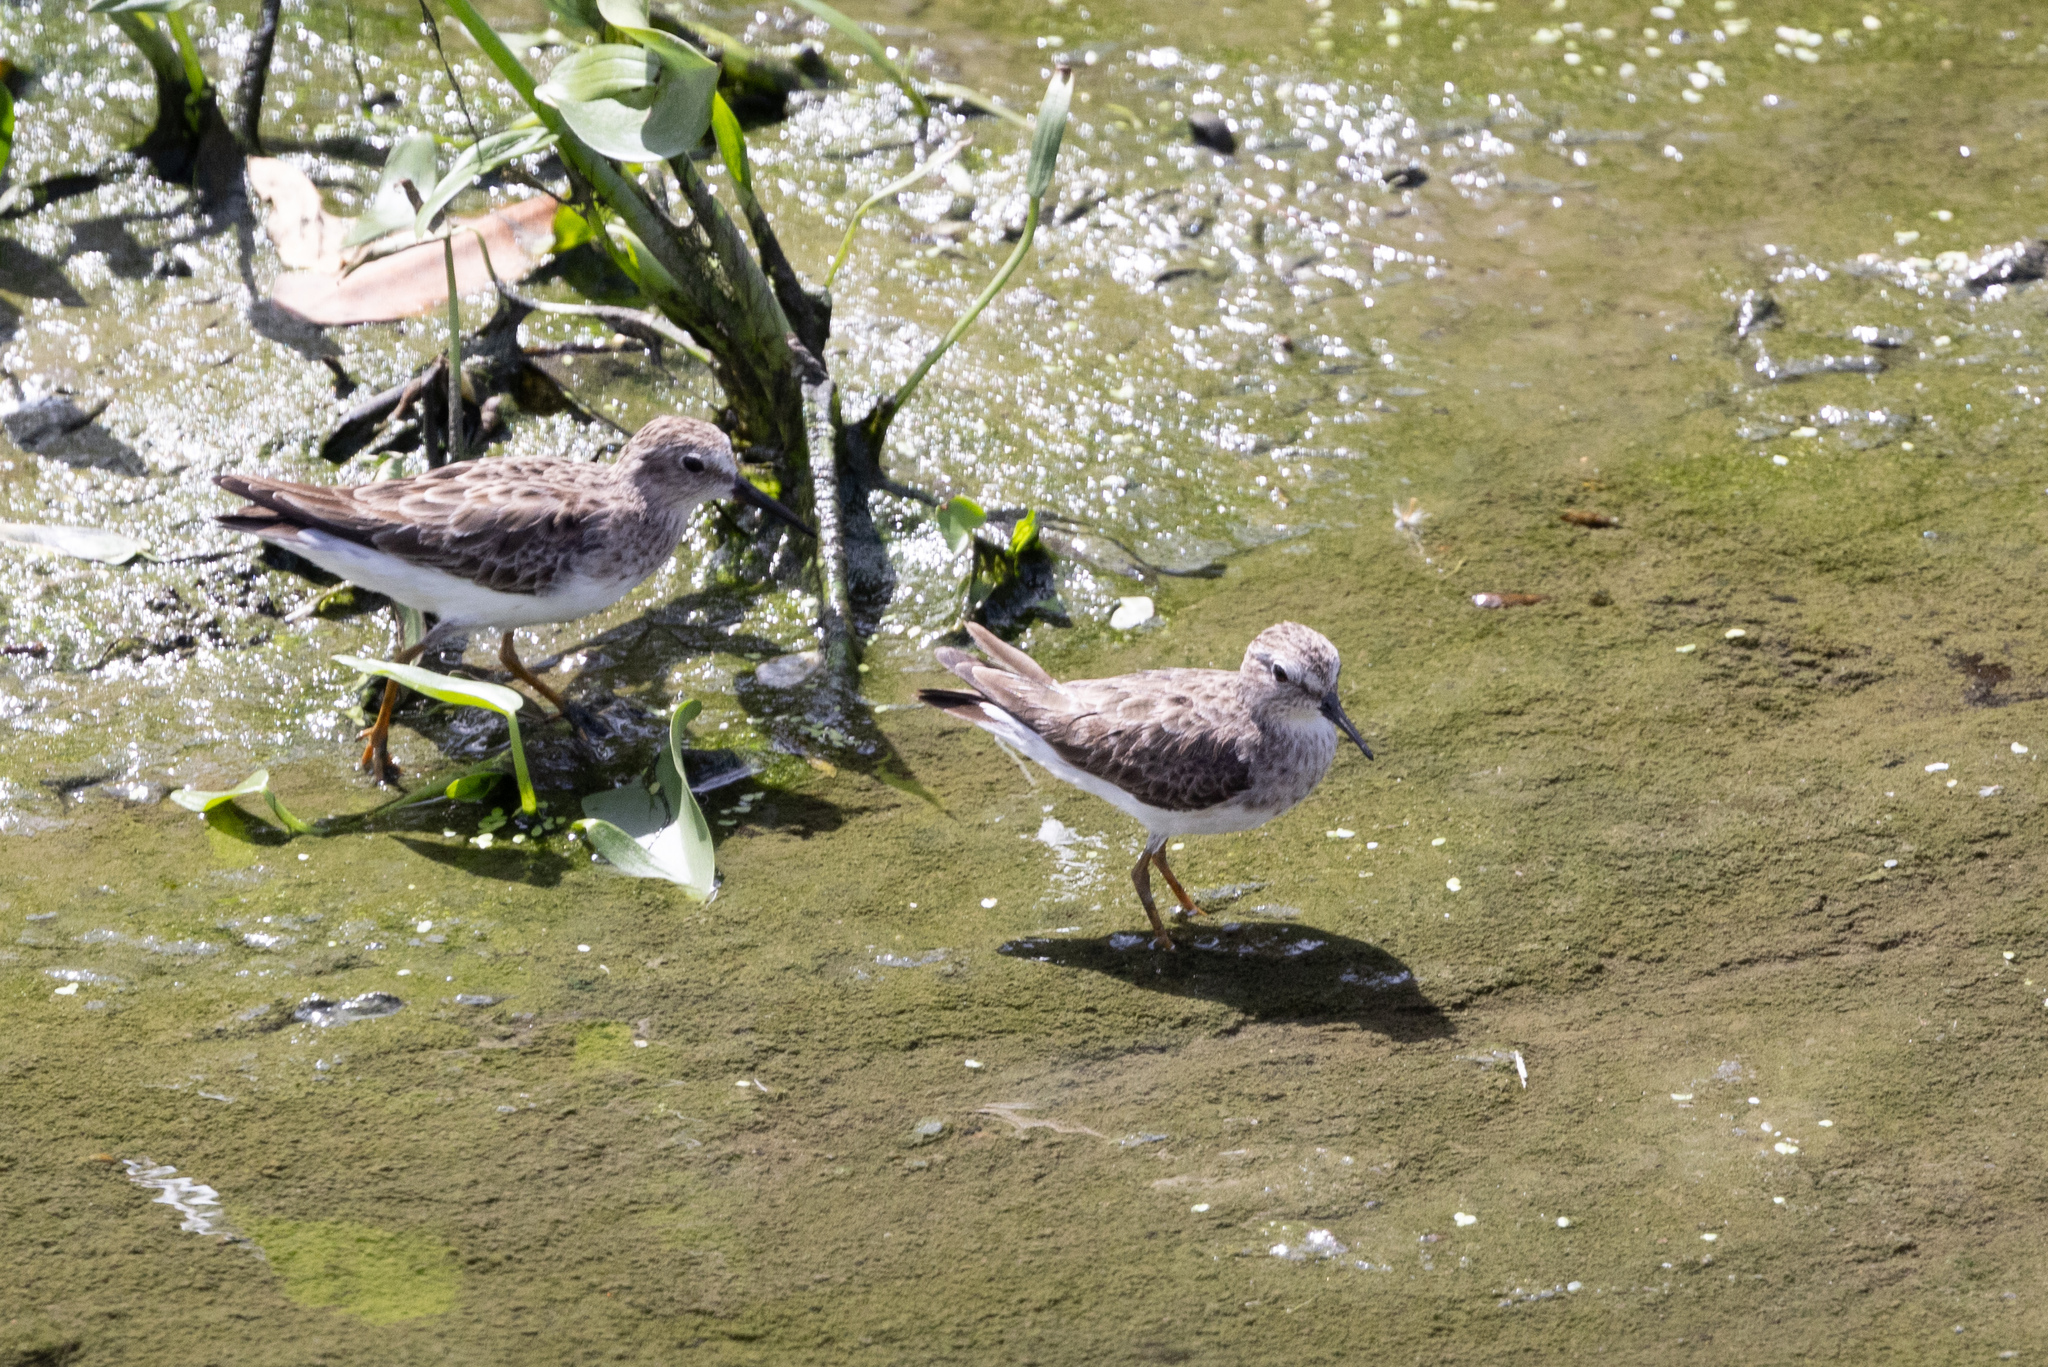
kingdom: Animalia
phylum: Chordata
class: Aves
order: Charadriiformes
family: Scolopacidae
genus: Calidris
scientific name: Calidris minutilla
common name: Least sandpiper
